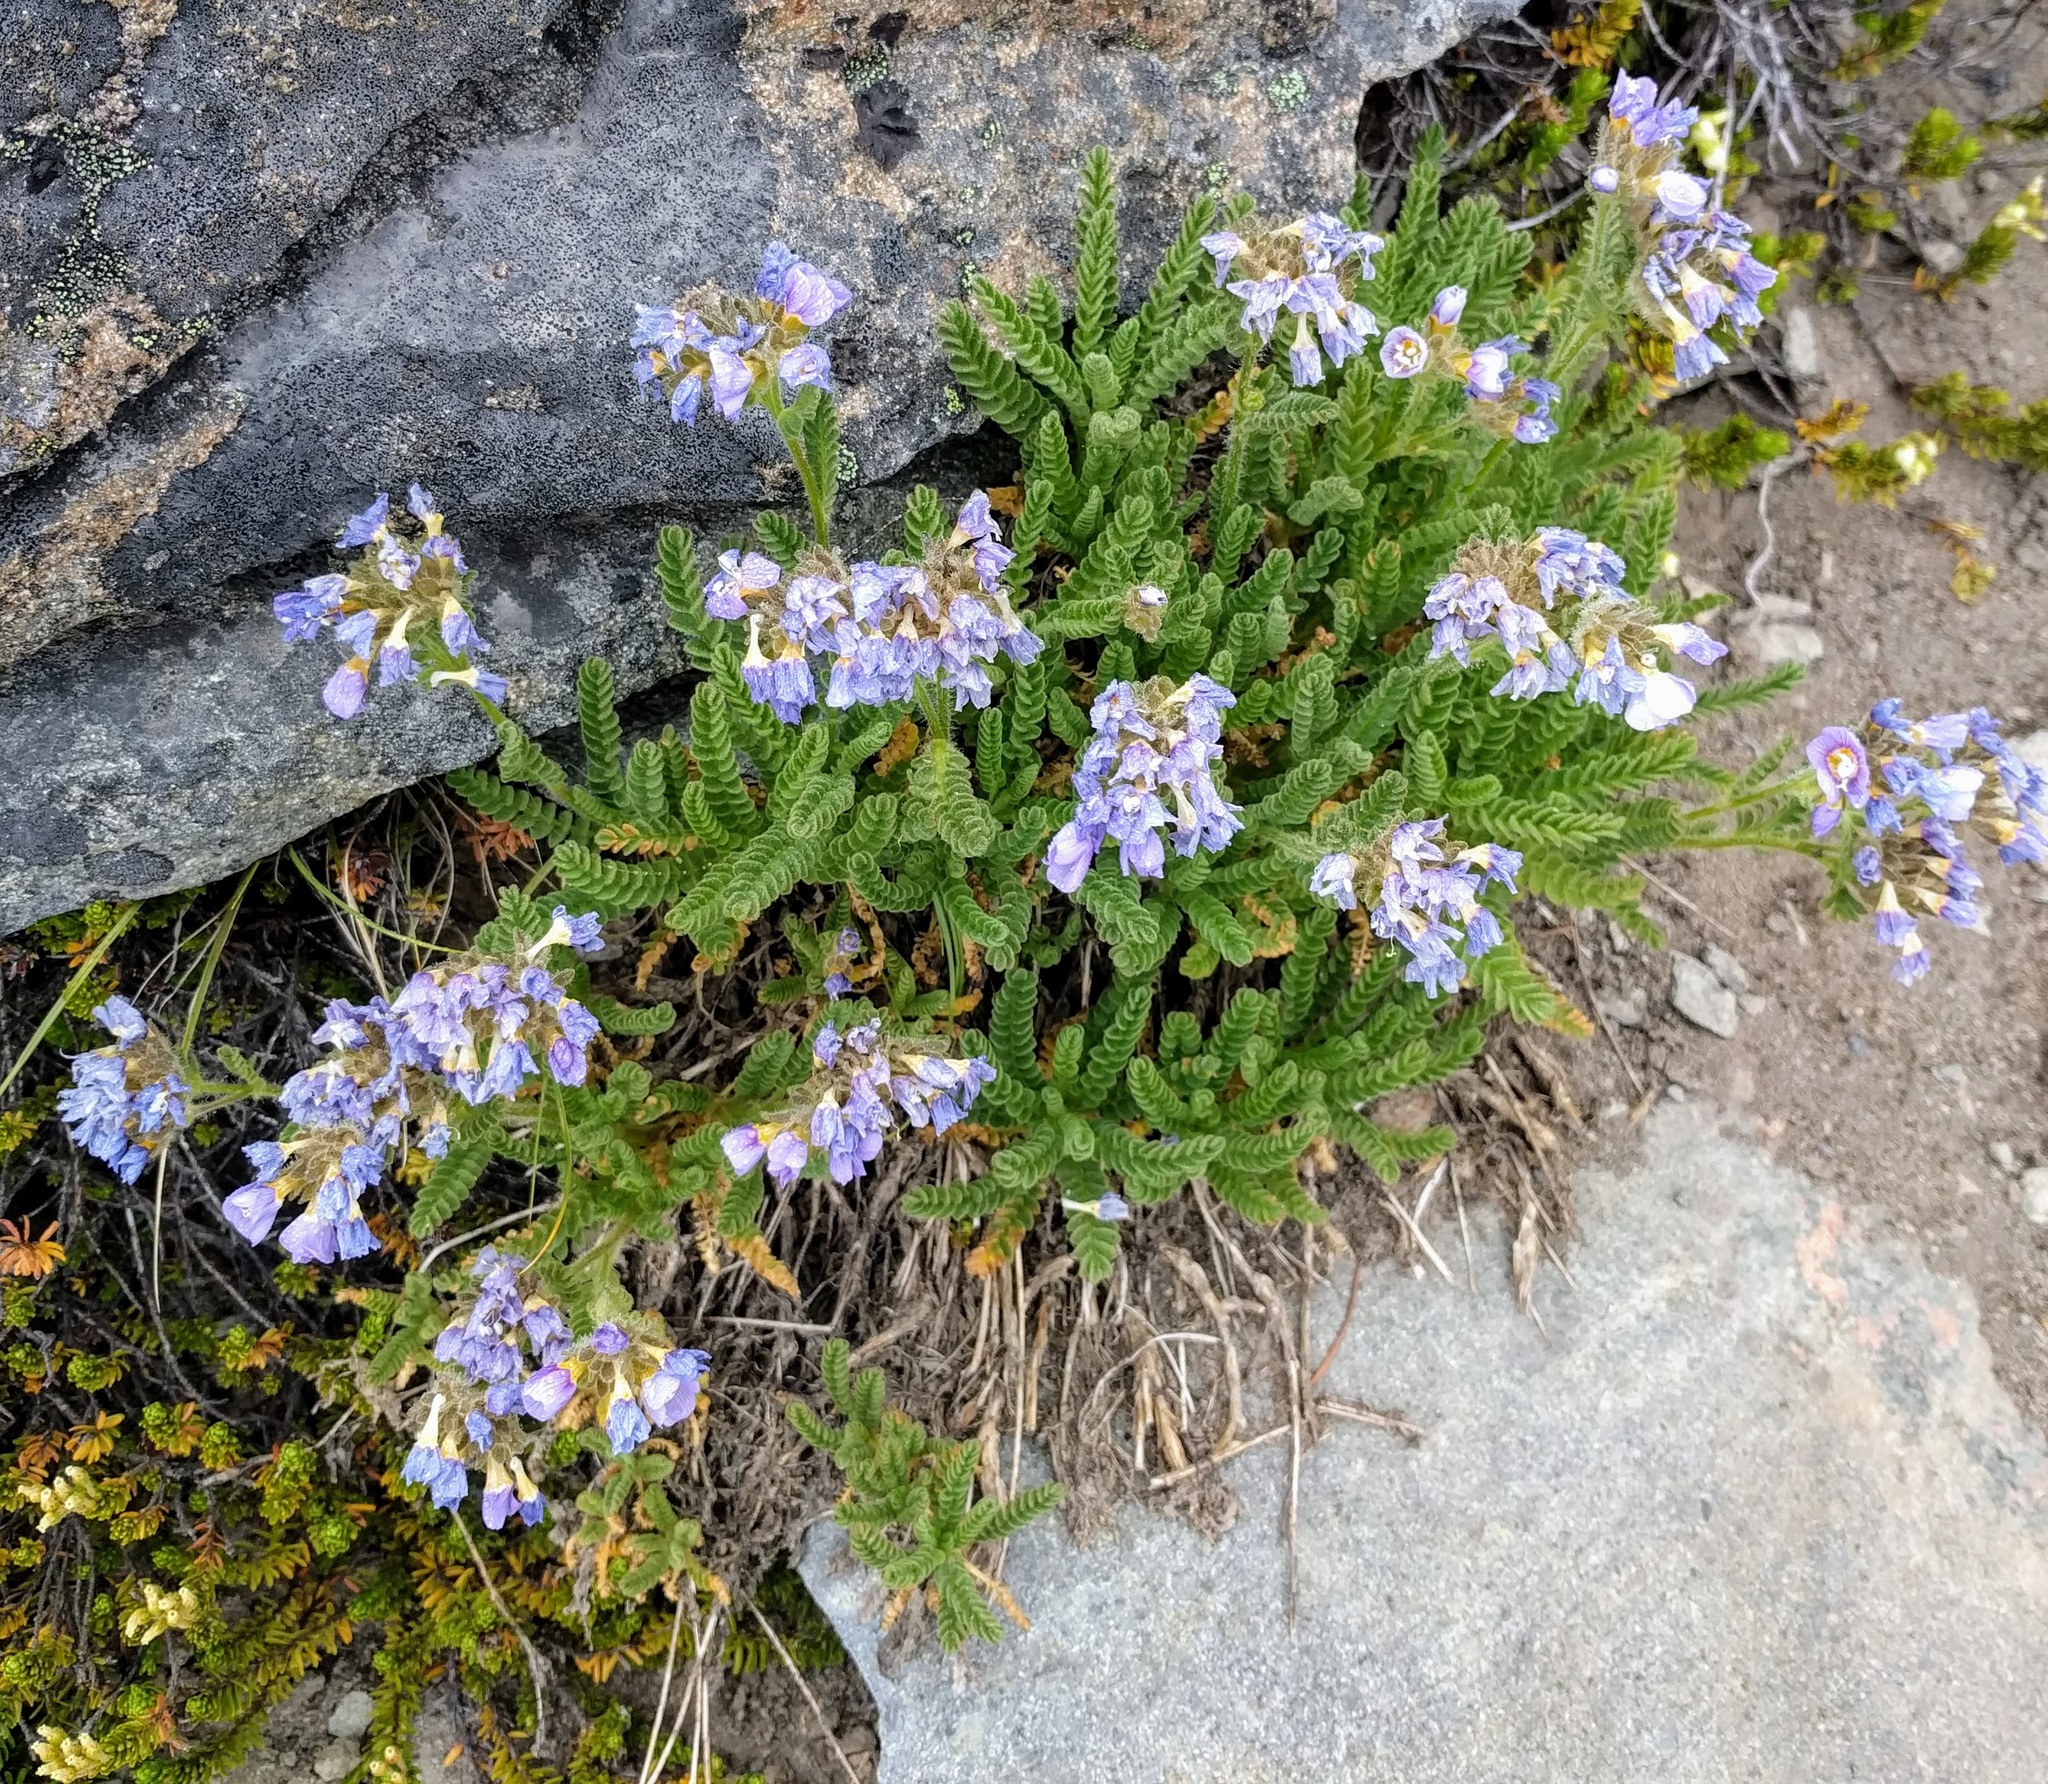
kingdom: Plantae
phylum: Tracheophyta
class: Magnoliopsida
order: Ericales
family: Polemoniaceae
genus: Polemonium
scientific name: Polemonium elegans
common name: Elegant jacob's-ladder
